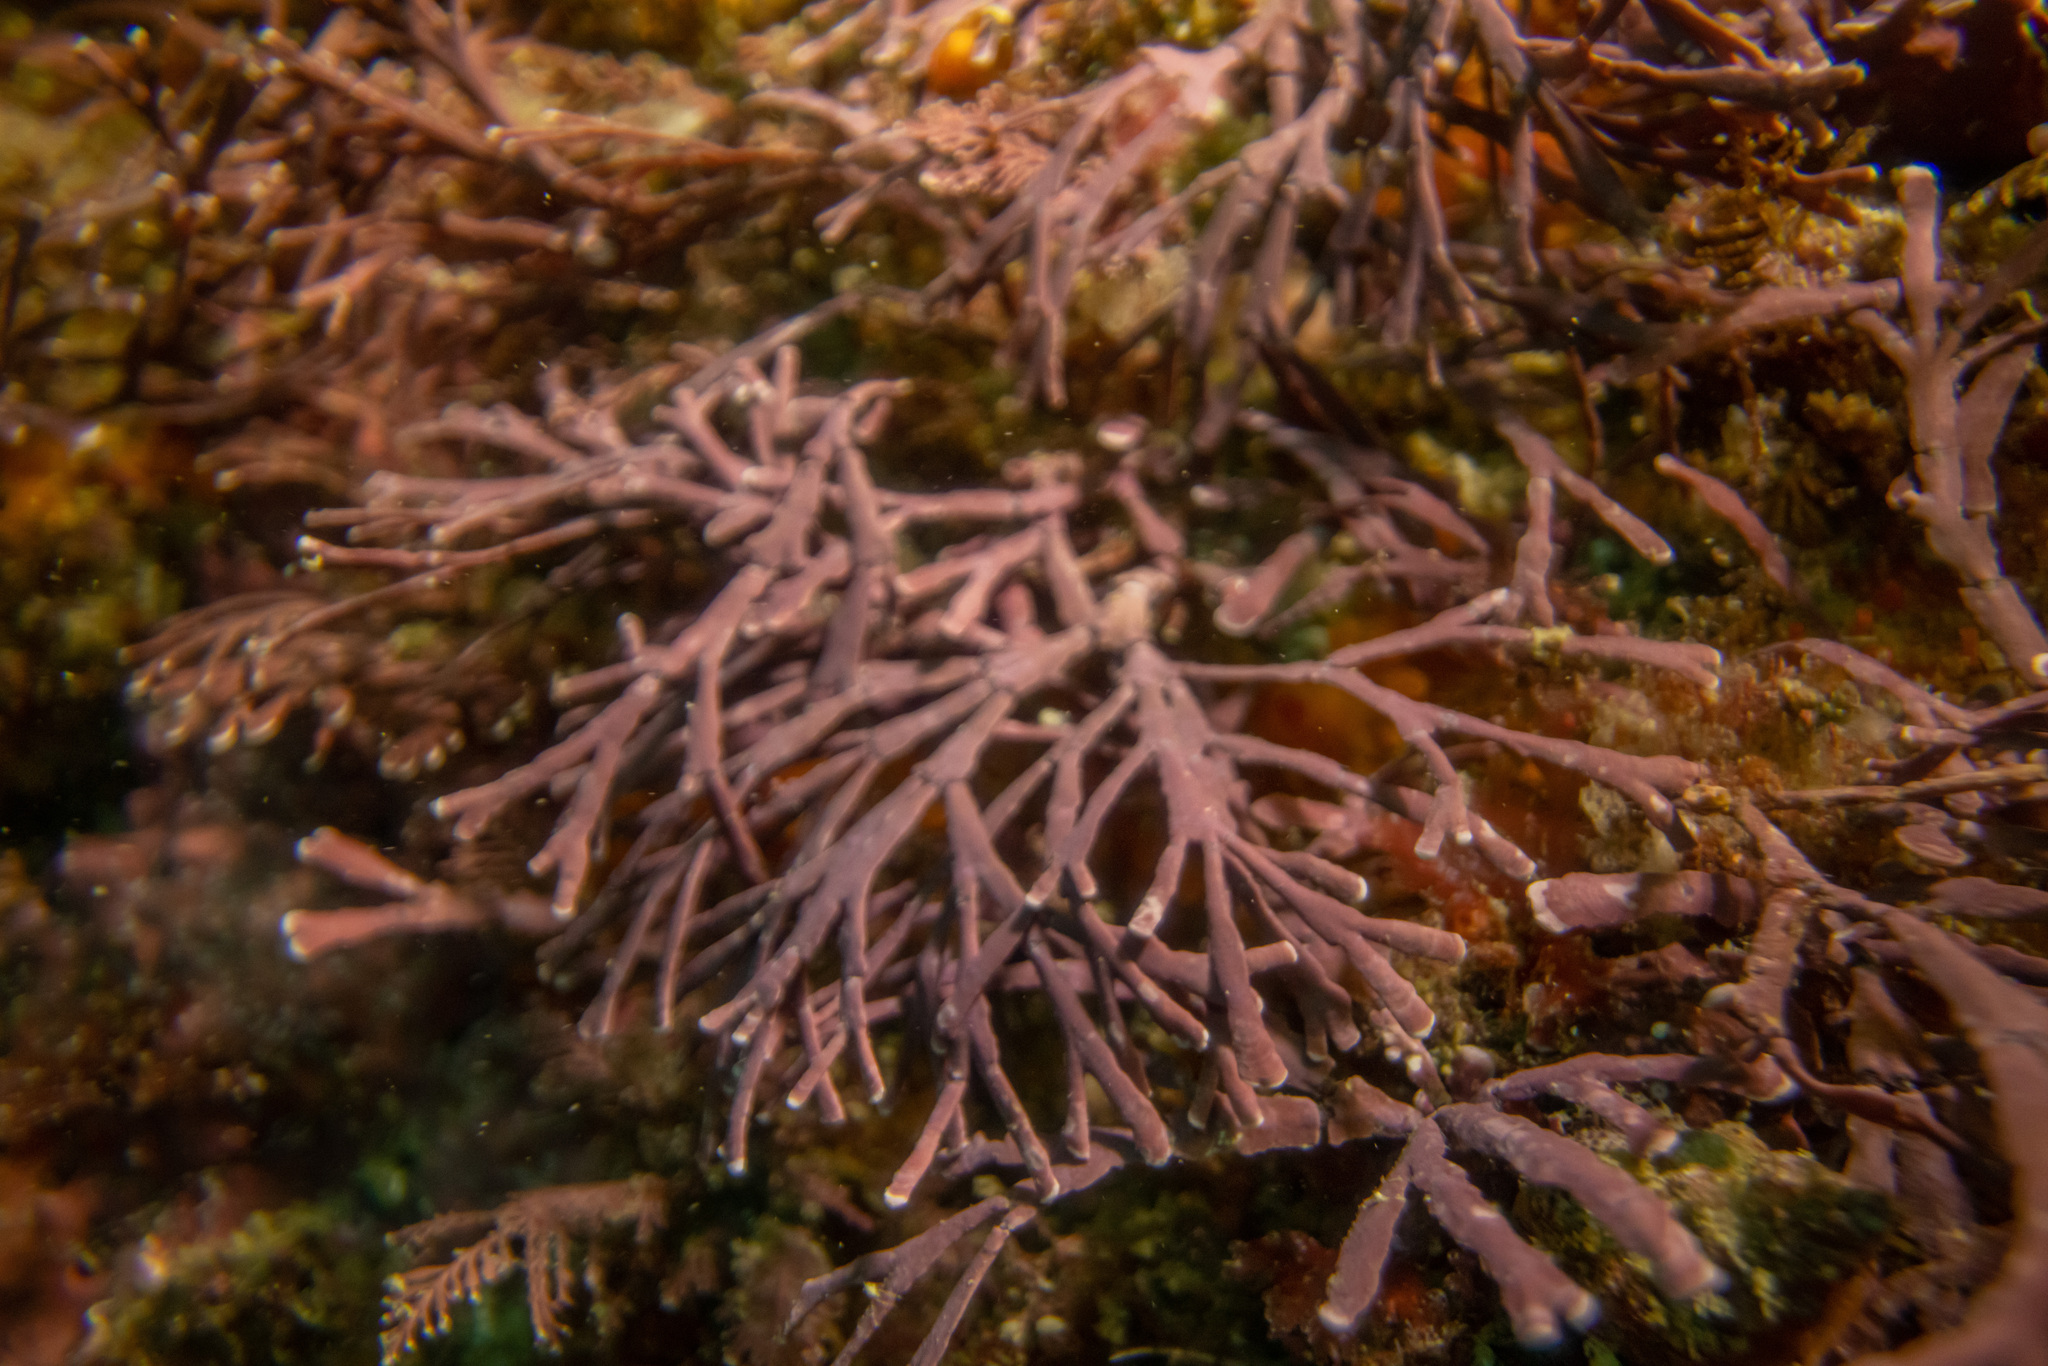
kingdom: Plantae
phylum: Rhodophyta
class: Florideophyceae
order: Corallinales
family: Lithophyllaceae
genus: Amphiroa
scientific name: Amphiroa anceps
